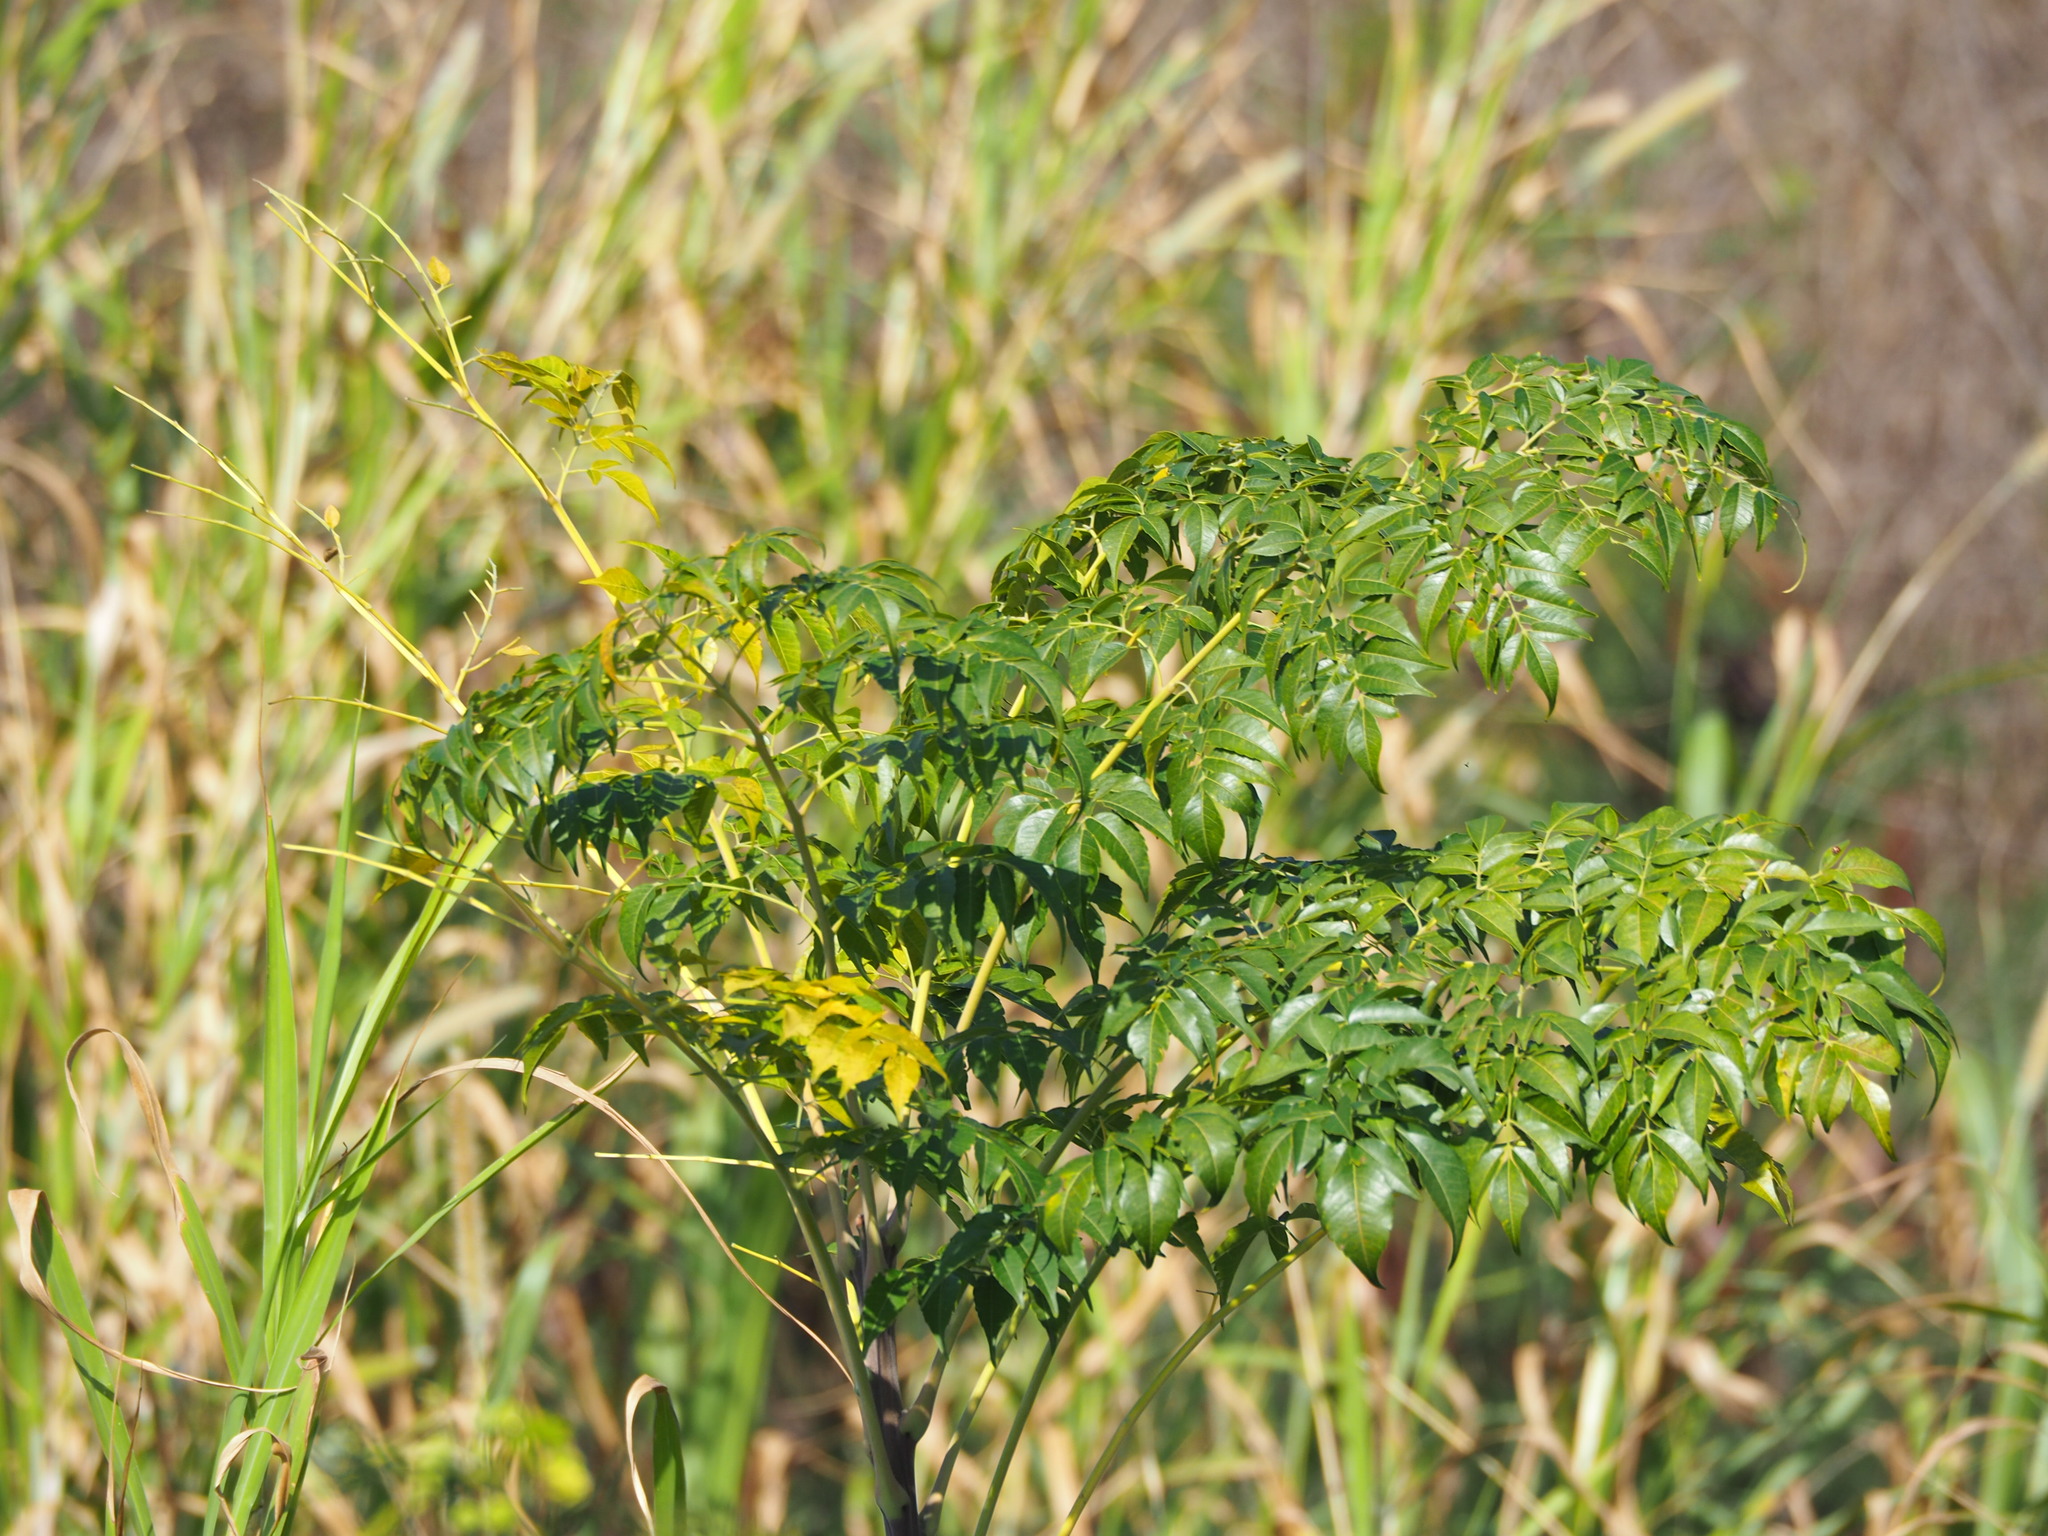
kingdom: Plantae
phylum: Tracheophyta
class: Magnoliopsida
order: Sapindales
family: Meliaceae
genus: Melia
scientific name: Melia azedarach
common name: Chinaberrytree
